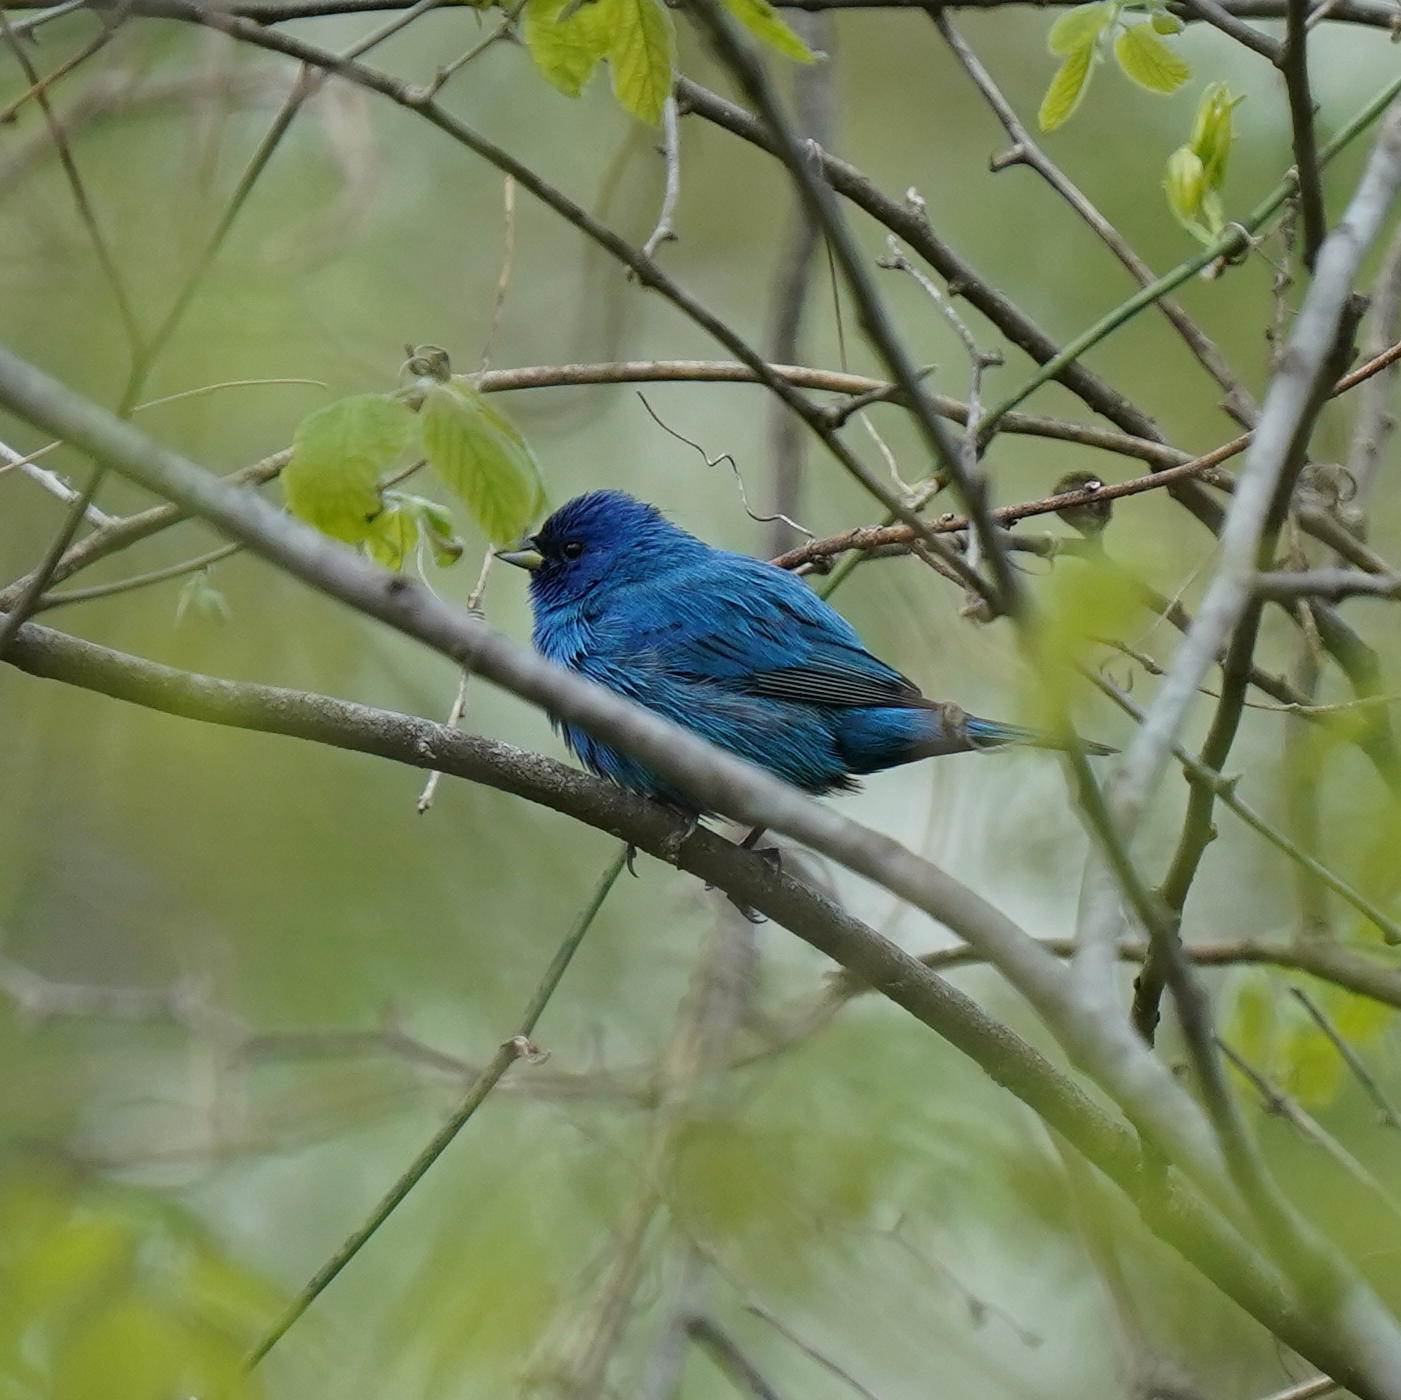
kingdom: Animalia
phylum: Chordata
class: Aves
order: Passeriformes
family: Cardinalidae
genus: Passerina
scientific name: Passerina cyanea
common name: Indigo bunting
